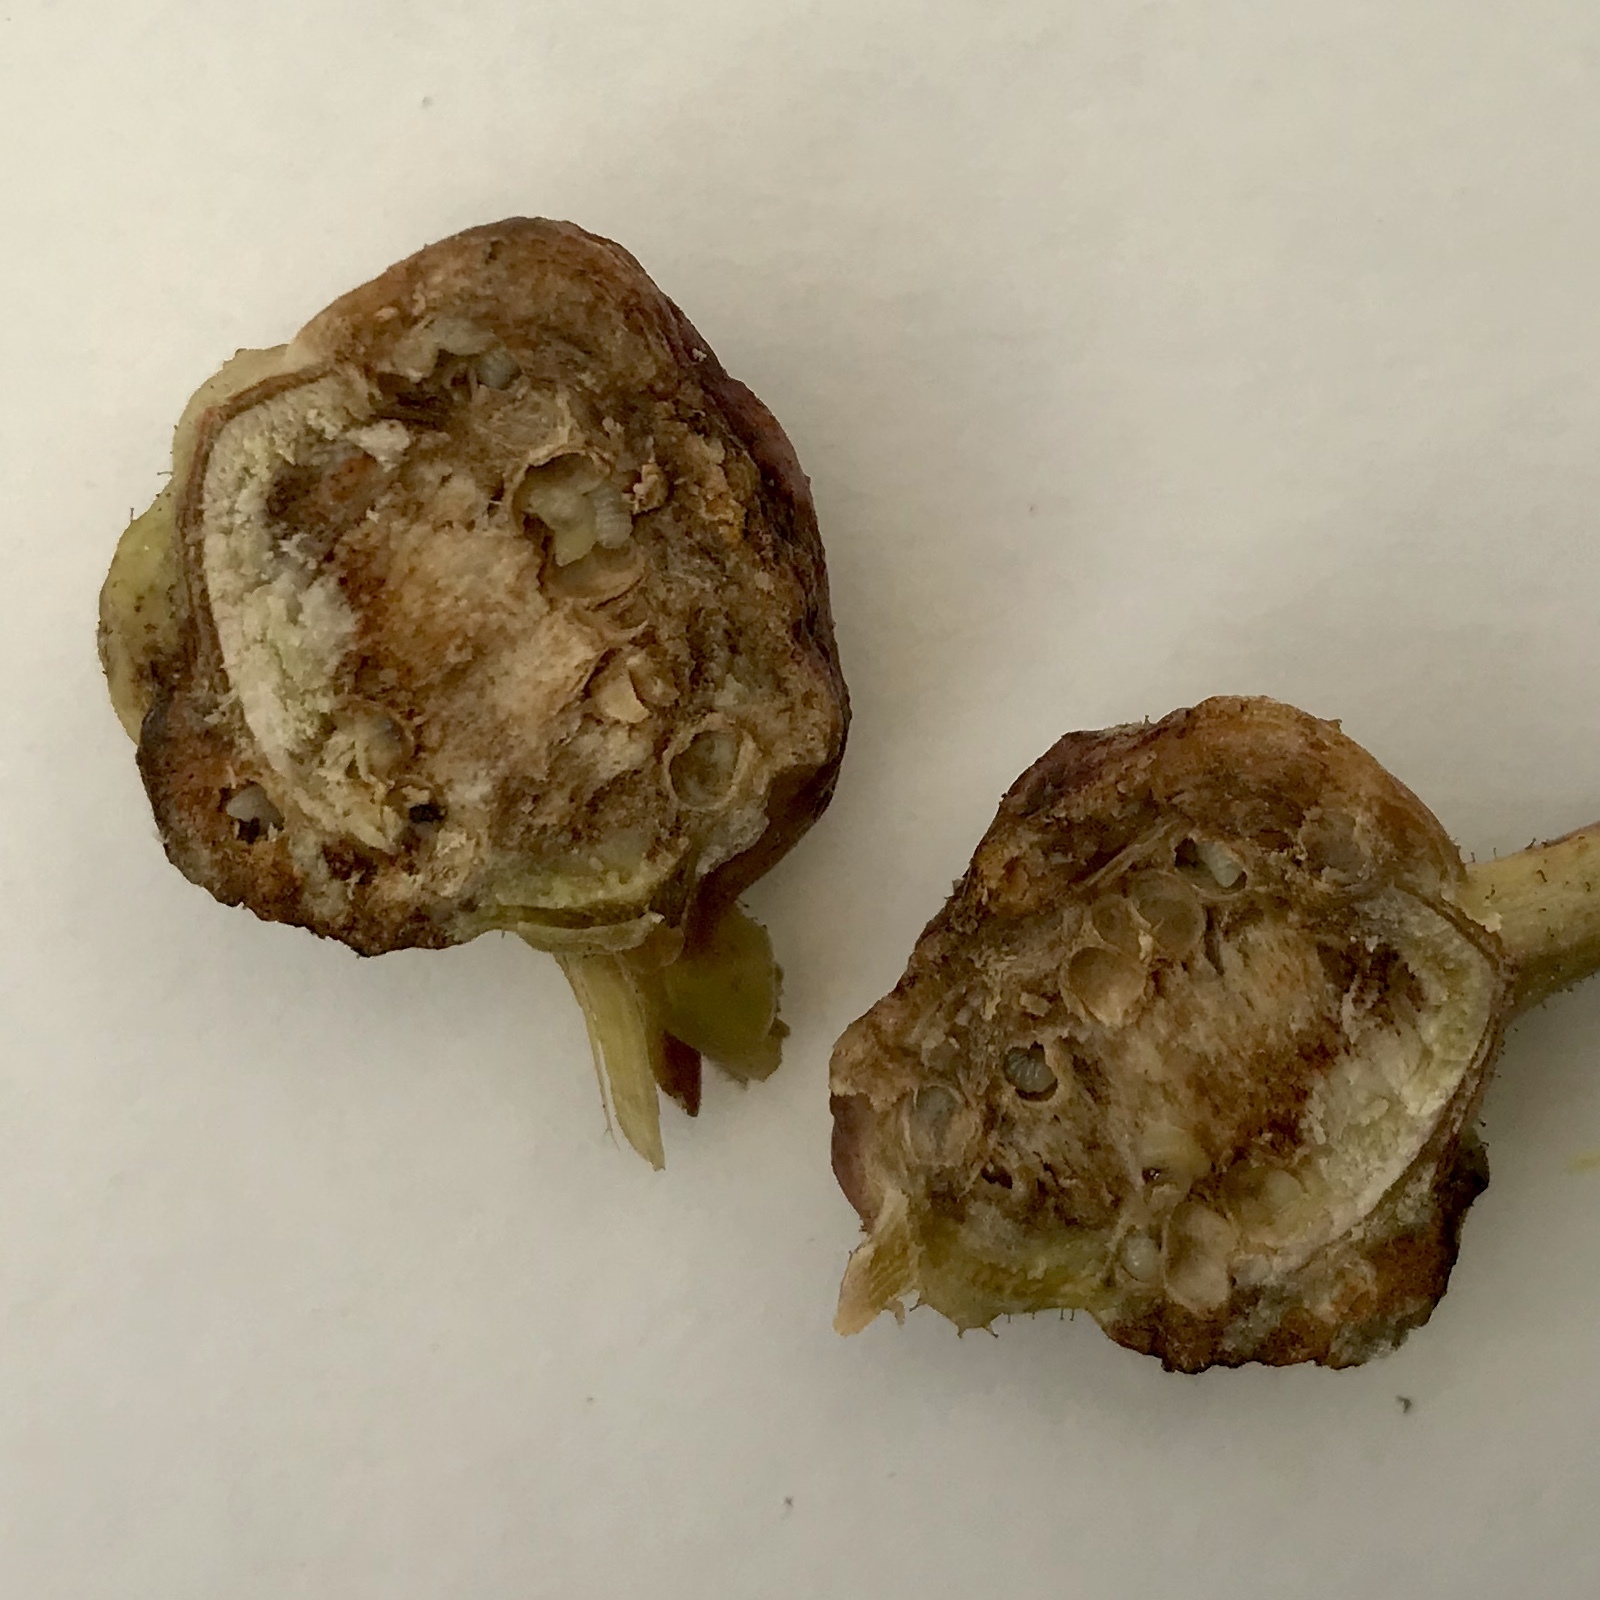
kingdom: Animalia
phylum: Arthropoda
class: Insecta
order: Hymenoptera
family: Cynipidae
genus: Diastrophus
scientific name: Diastrophus
